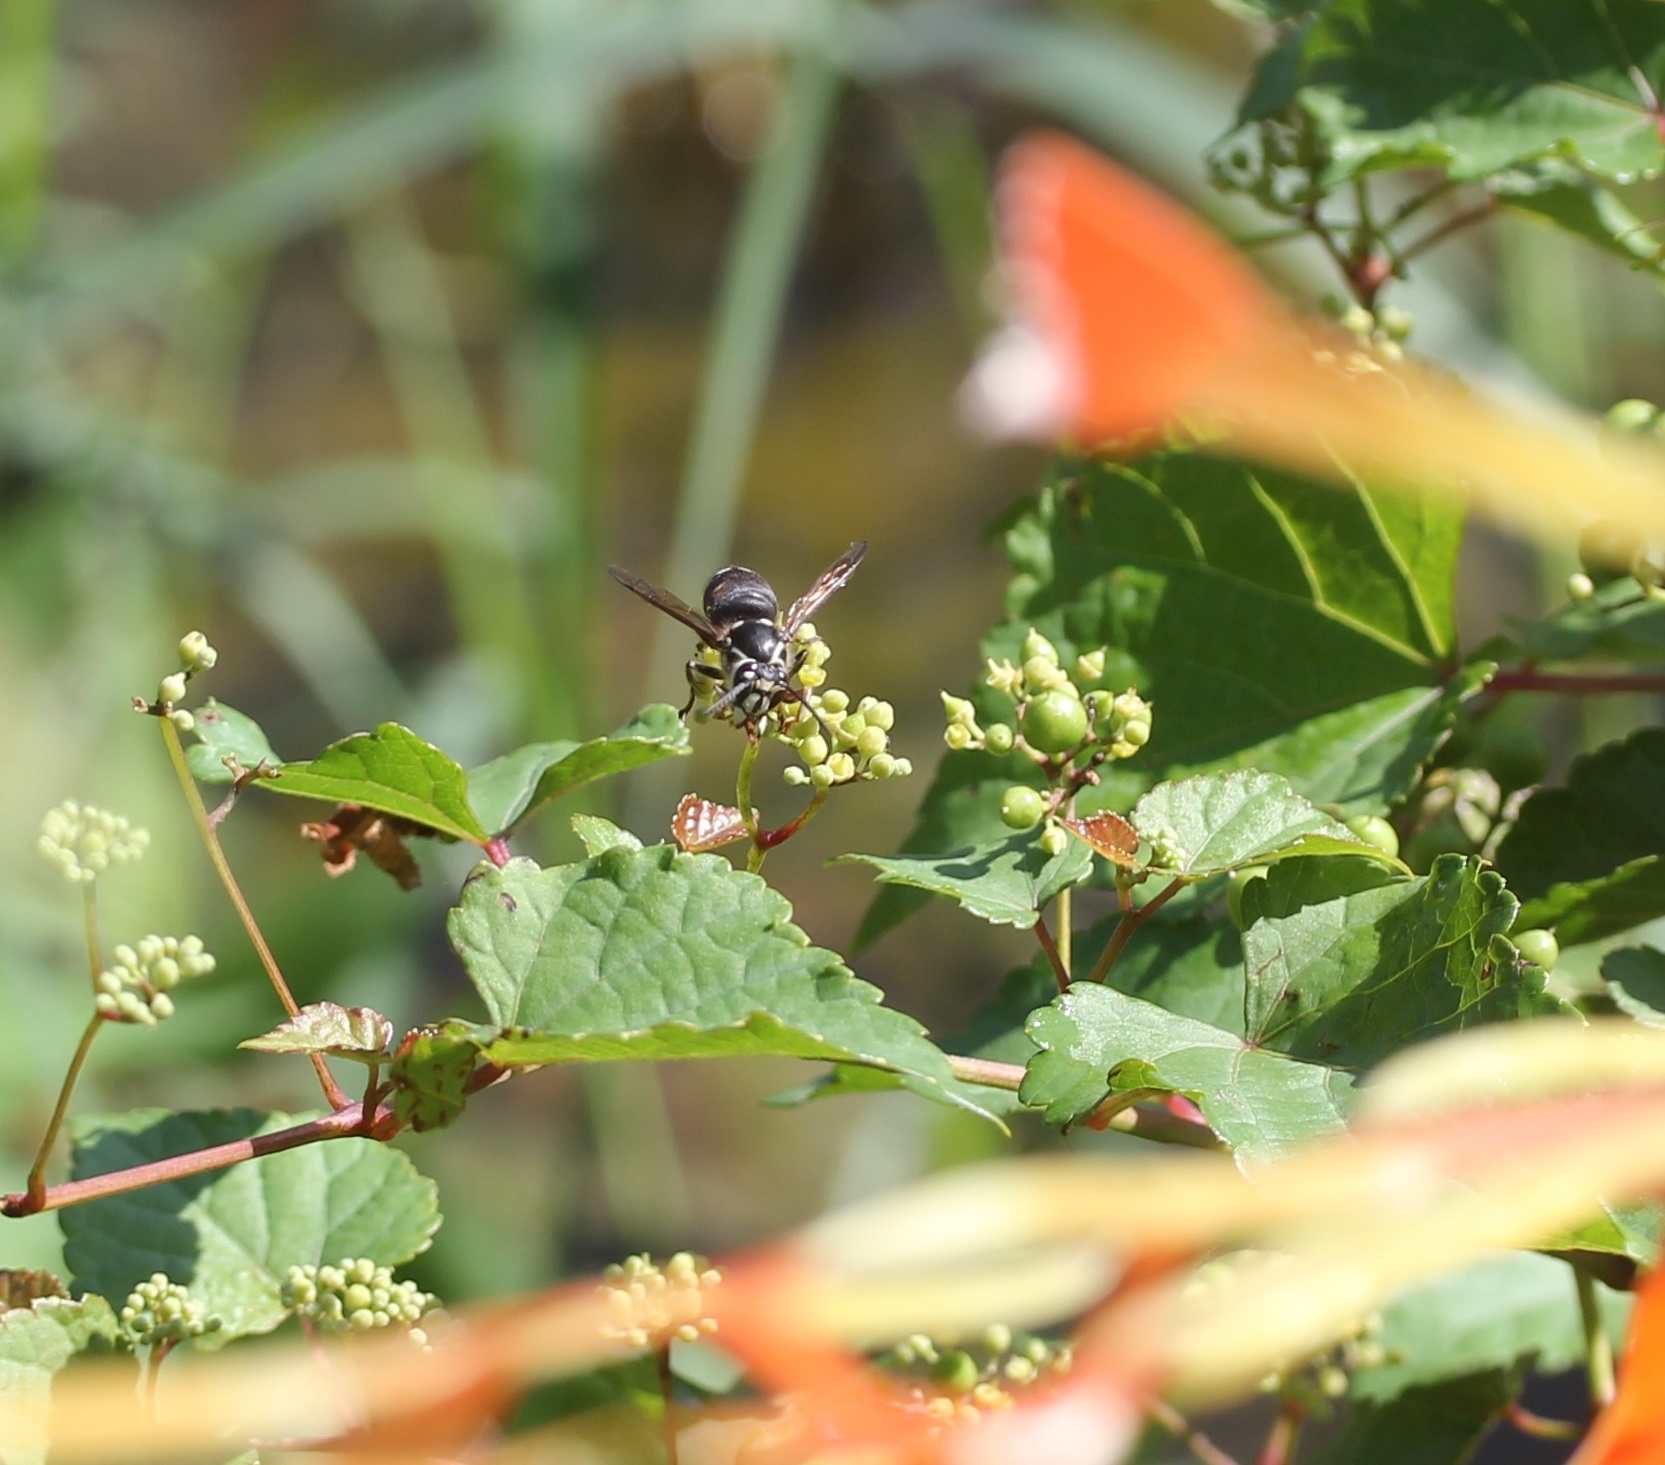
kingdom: Animalia
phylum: Arthropoda
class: Insecta
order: Hymenoptera
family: Vespidae
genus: Dolichovespula
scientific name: Dolichovespula maculata
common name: Bald-faced hornet
